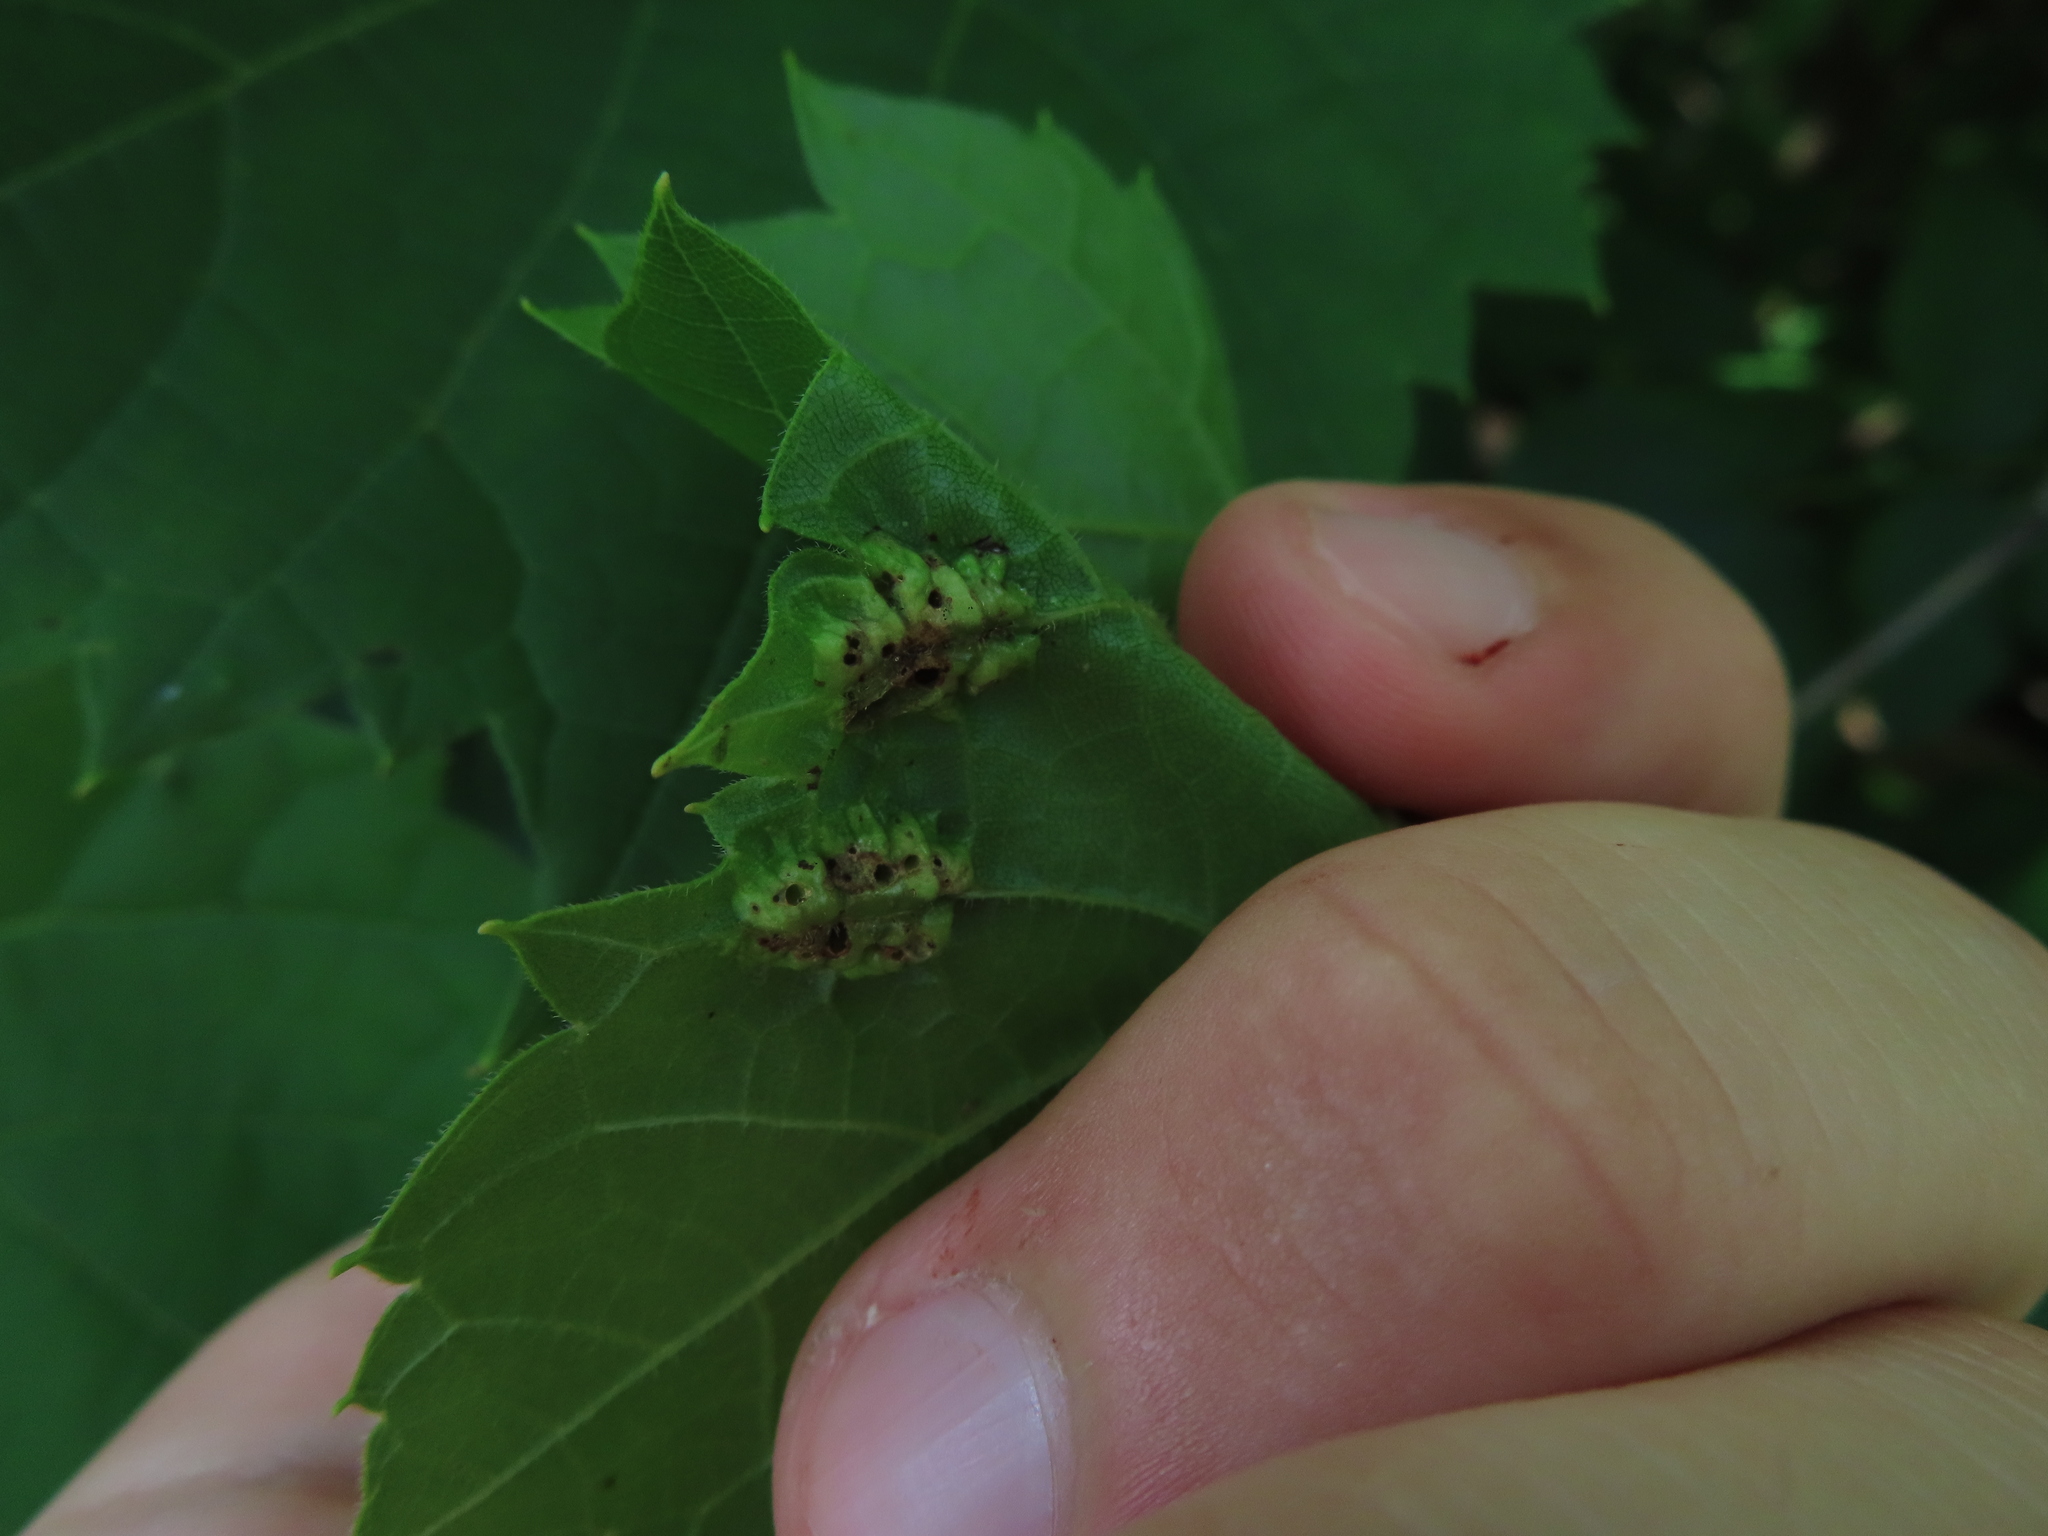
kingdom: Animalia
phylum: Arthropoda
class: Insecta
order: Lepidoptera
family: Heliozelidae
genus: Heliozela
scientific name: Heliozela aesella
